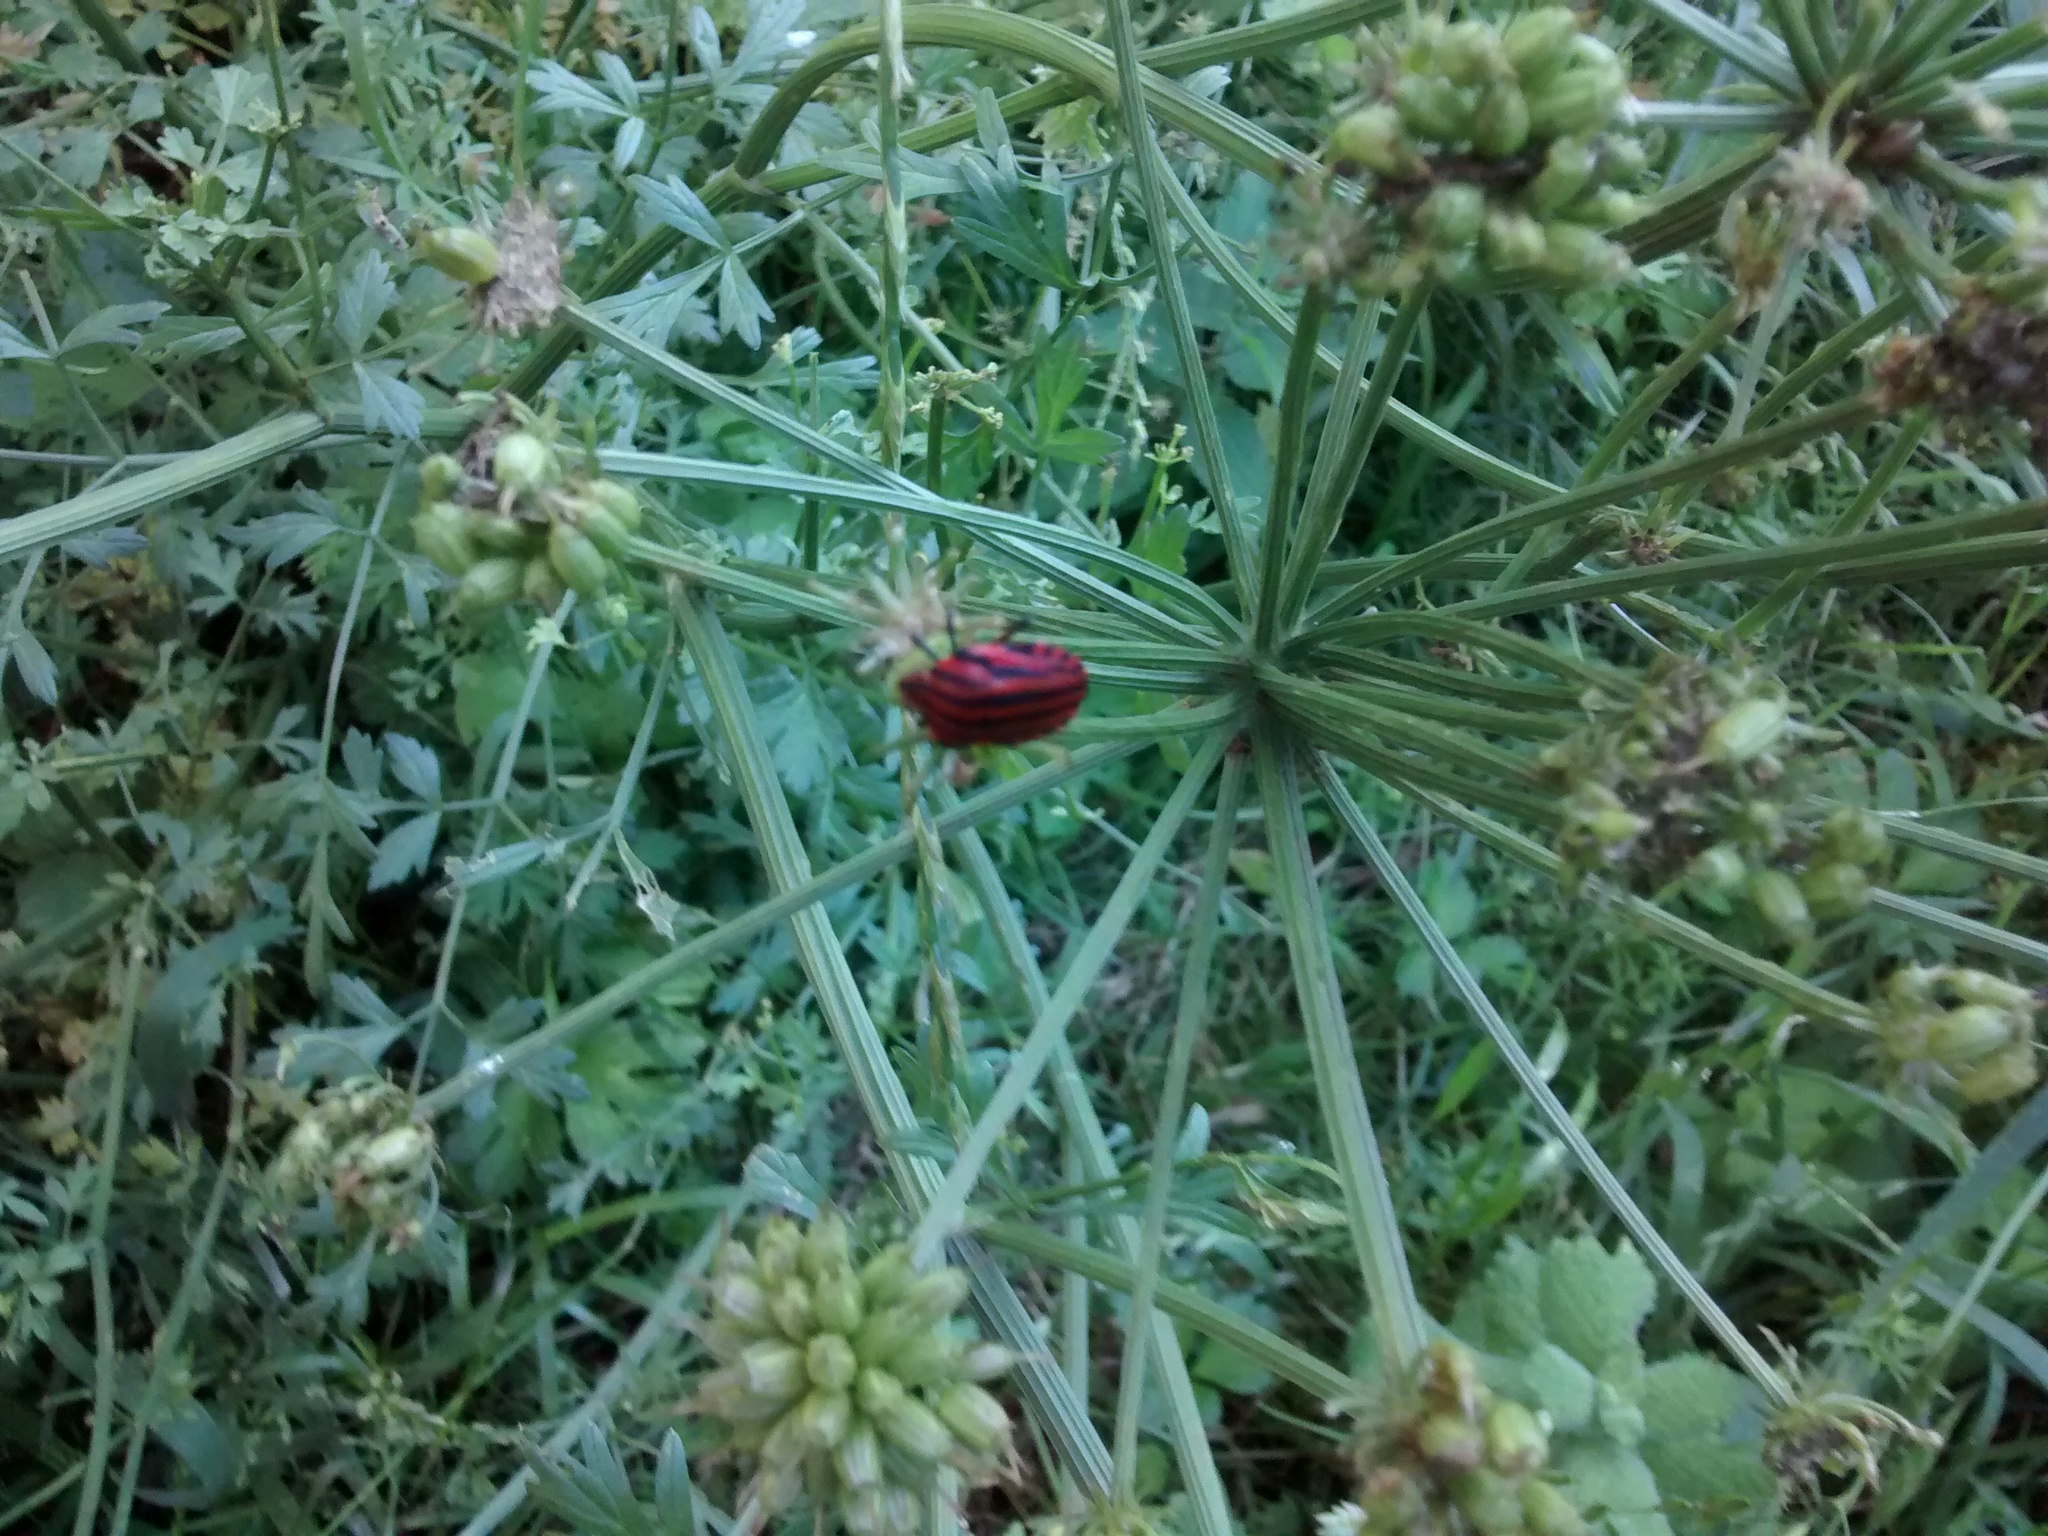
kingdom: Animalia
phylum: Arthropoda
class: Insecta
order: Hemiptera
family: Pentatomidae
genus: Graphosoma
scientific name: Graphosoma italicum
